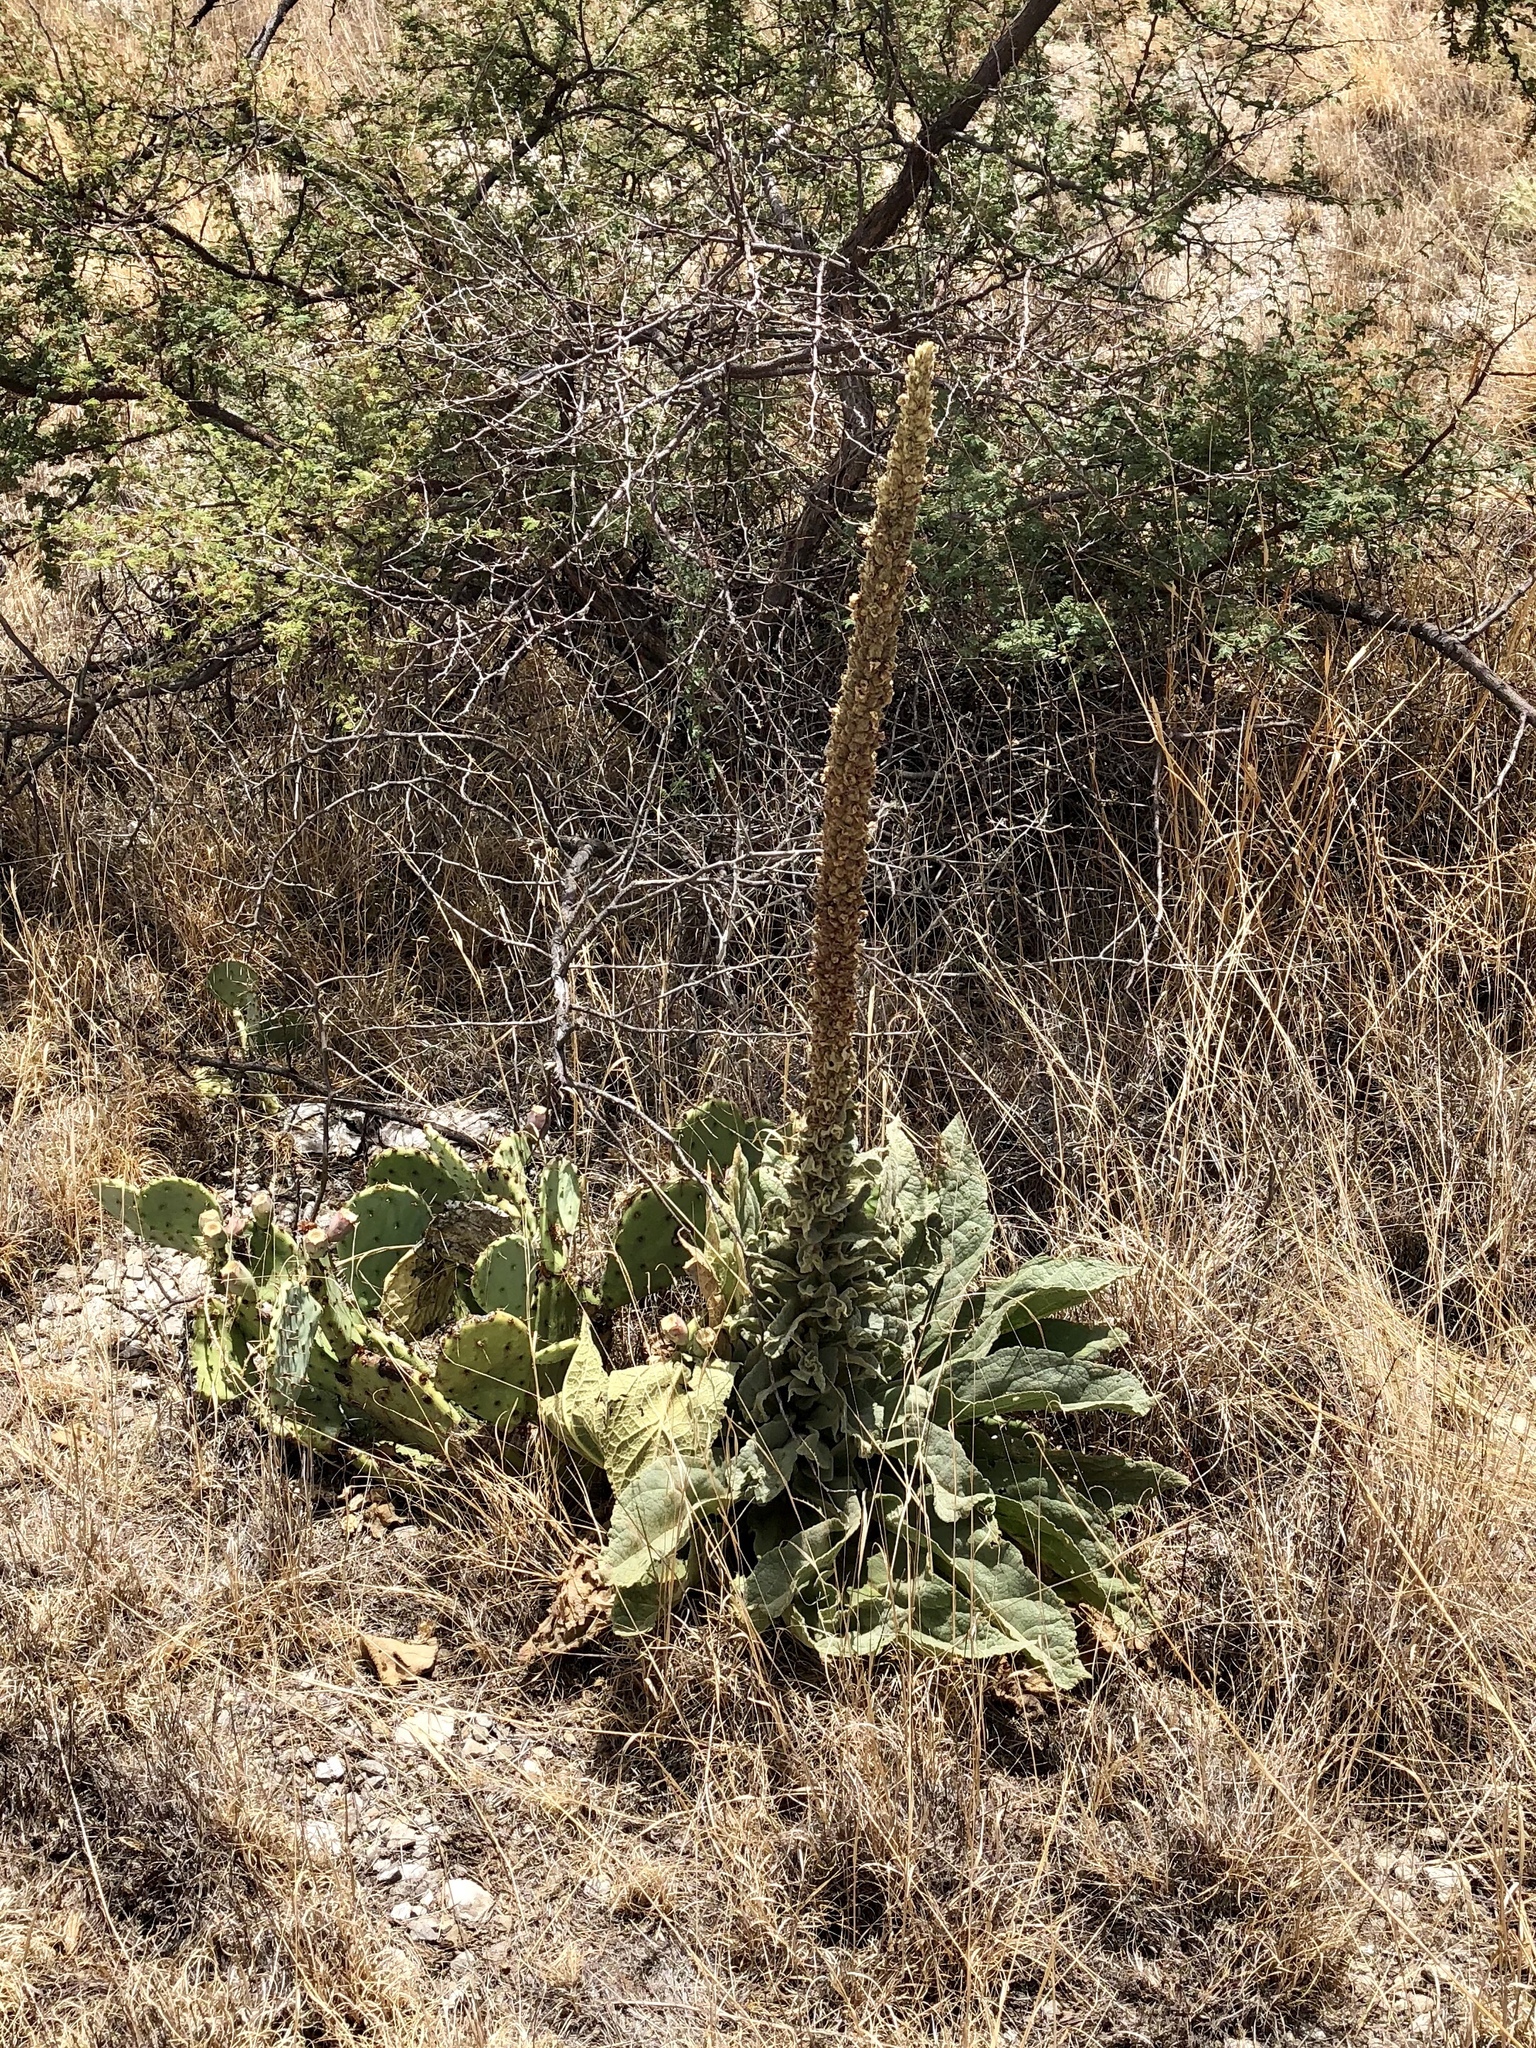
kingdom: Plantae
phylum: Tracheophyta
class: Magnoliopsida
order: Lamiales
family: Scrophulariaceae
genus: Verbascum
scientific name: Verbascum thapsus
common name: Common mullein
